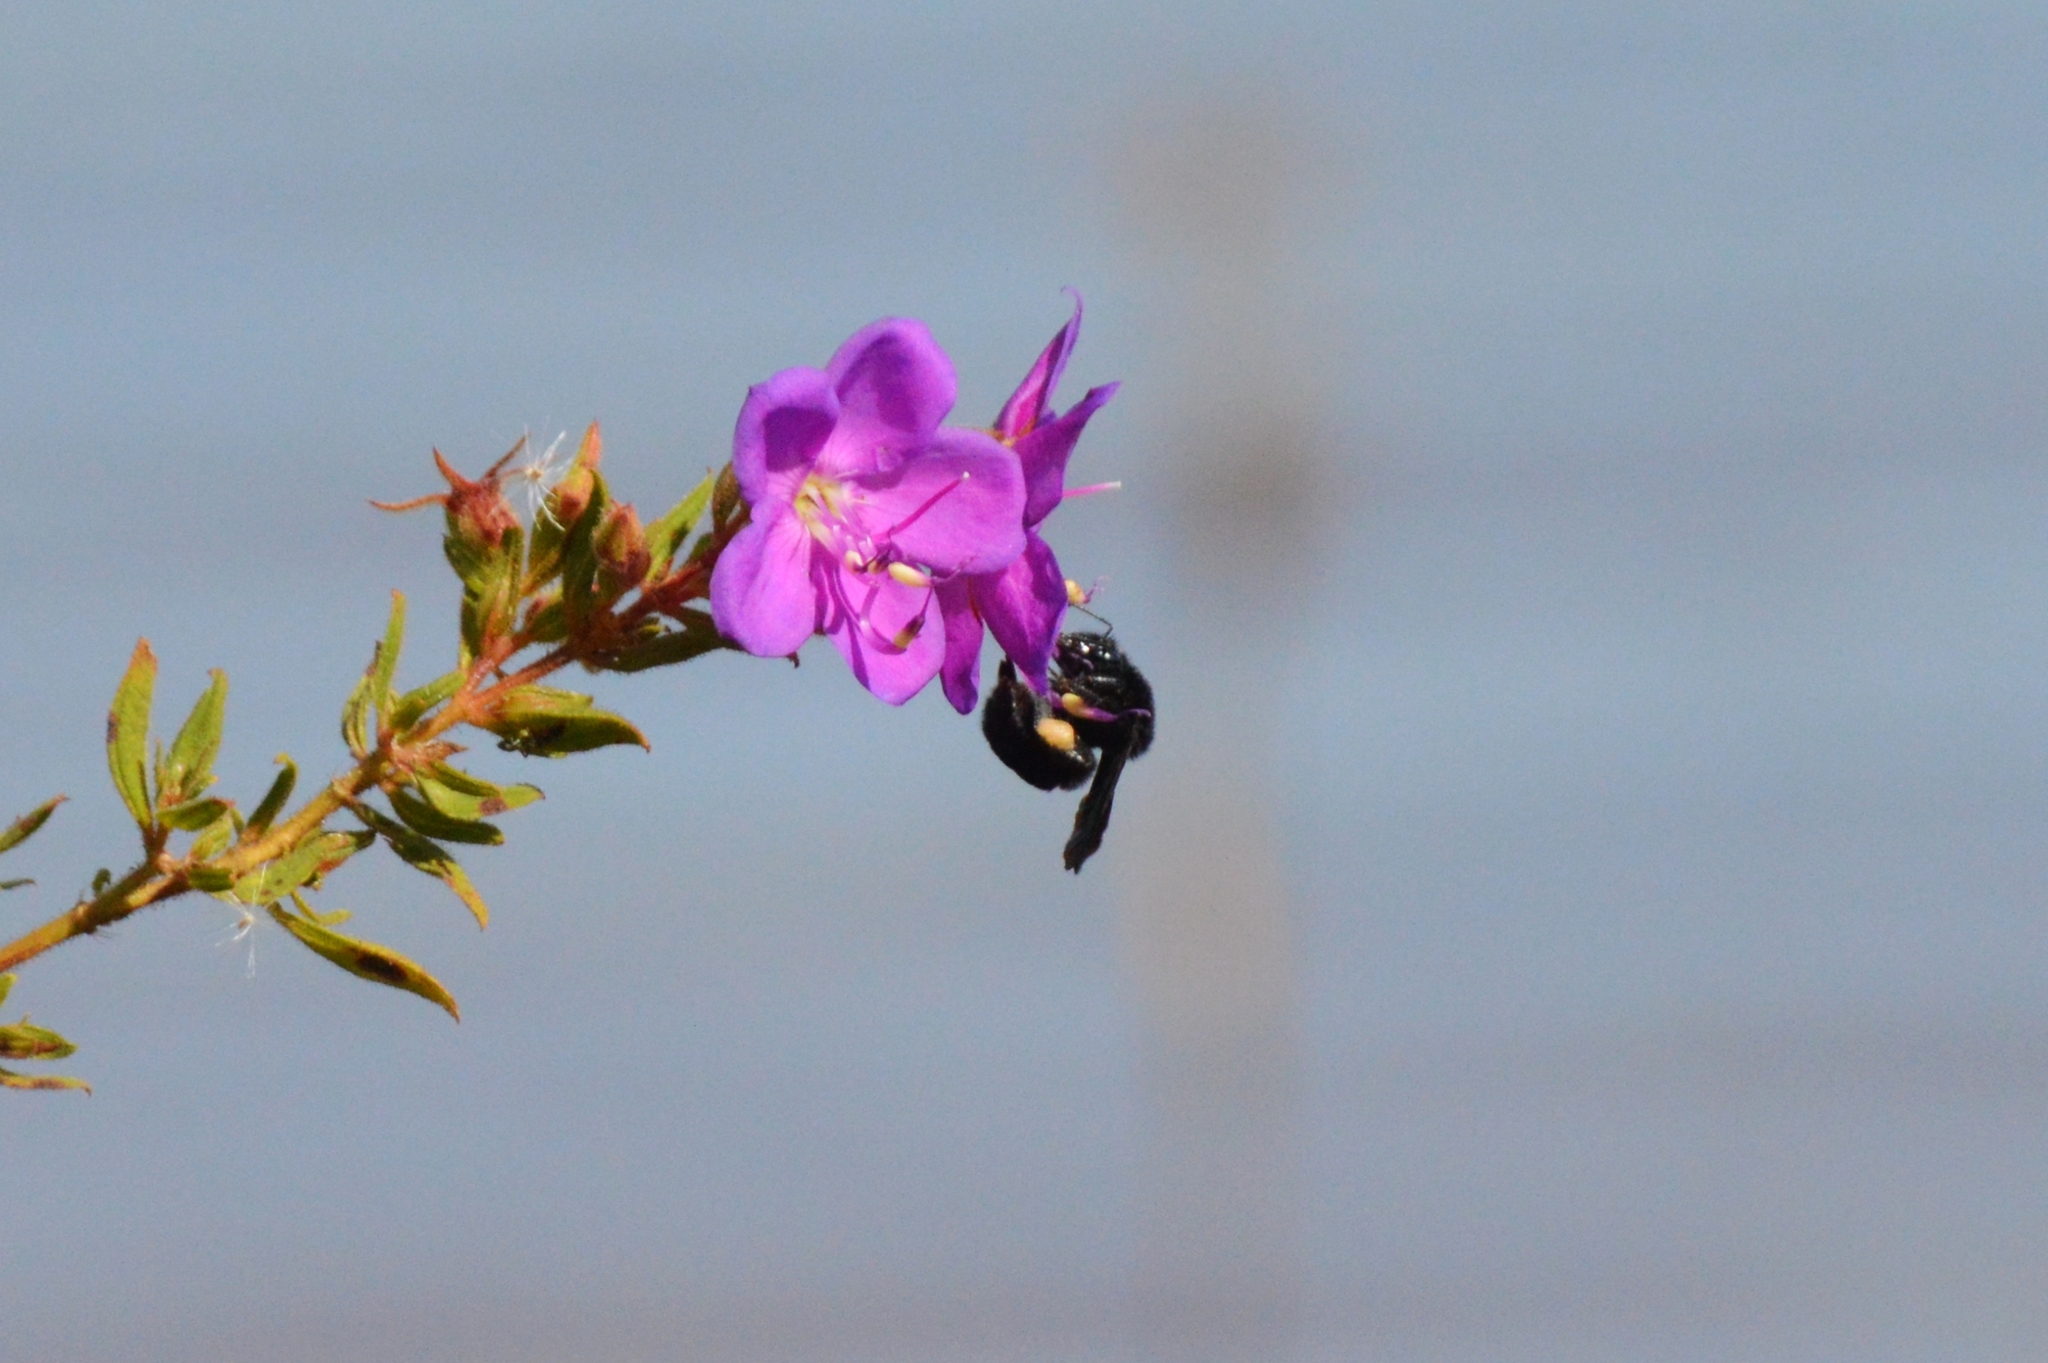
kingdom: Animalia
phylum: Arthropoda
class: Insecta
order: Hymenoptera
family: Apidae
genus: Eulaema
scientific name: Eulaema nigrita
